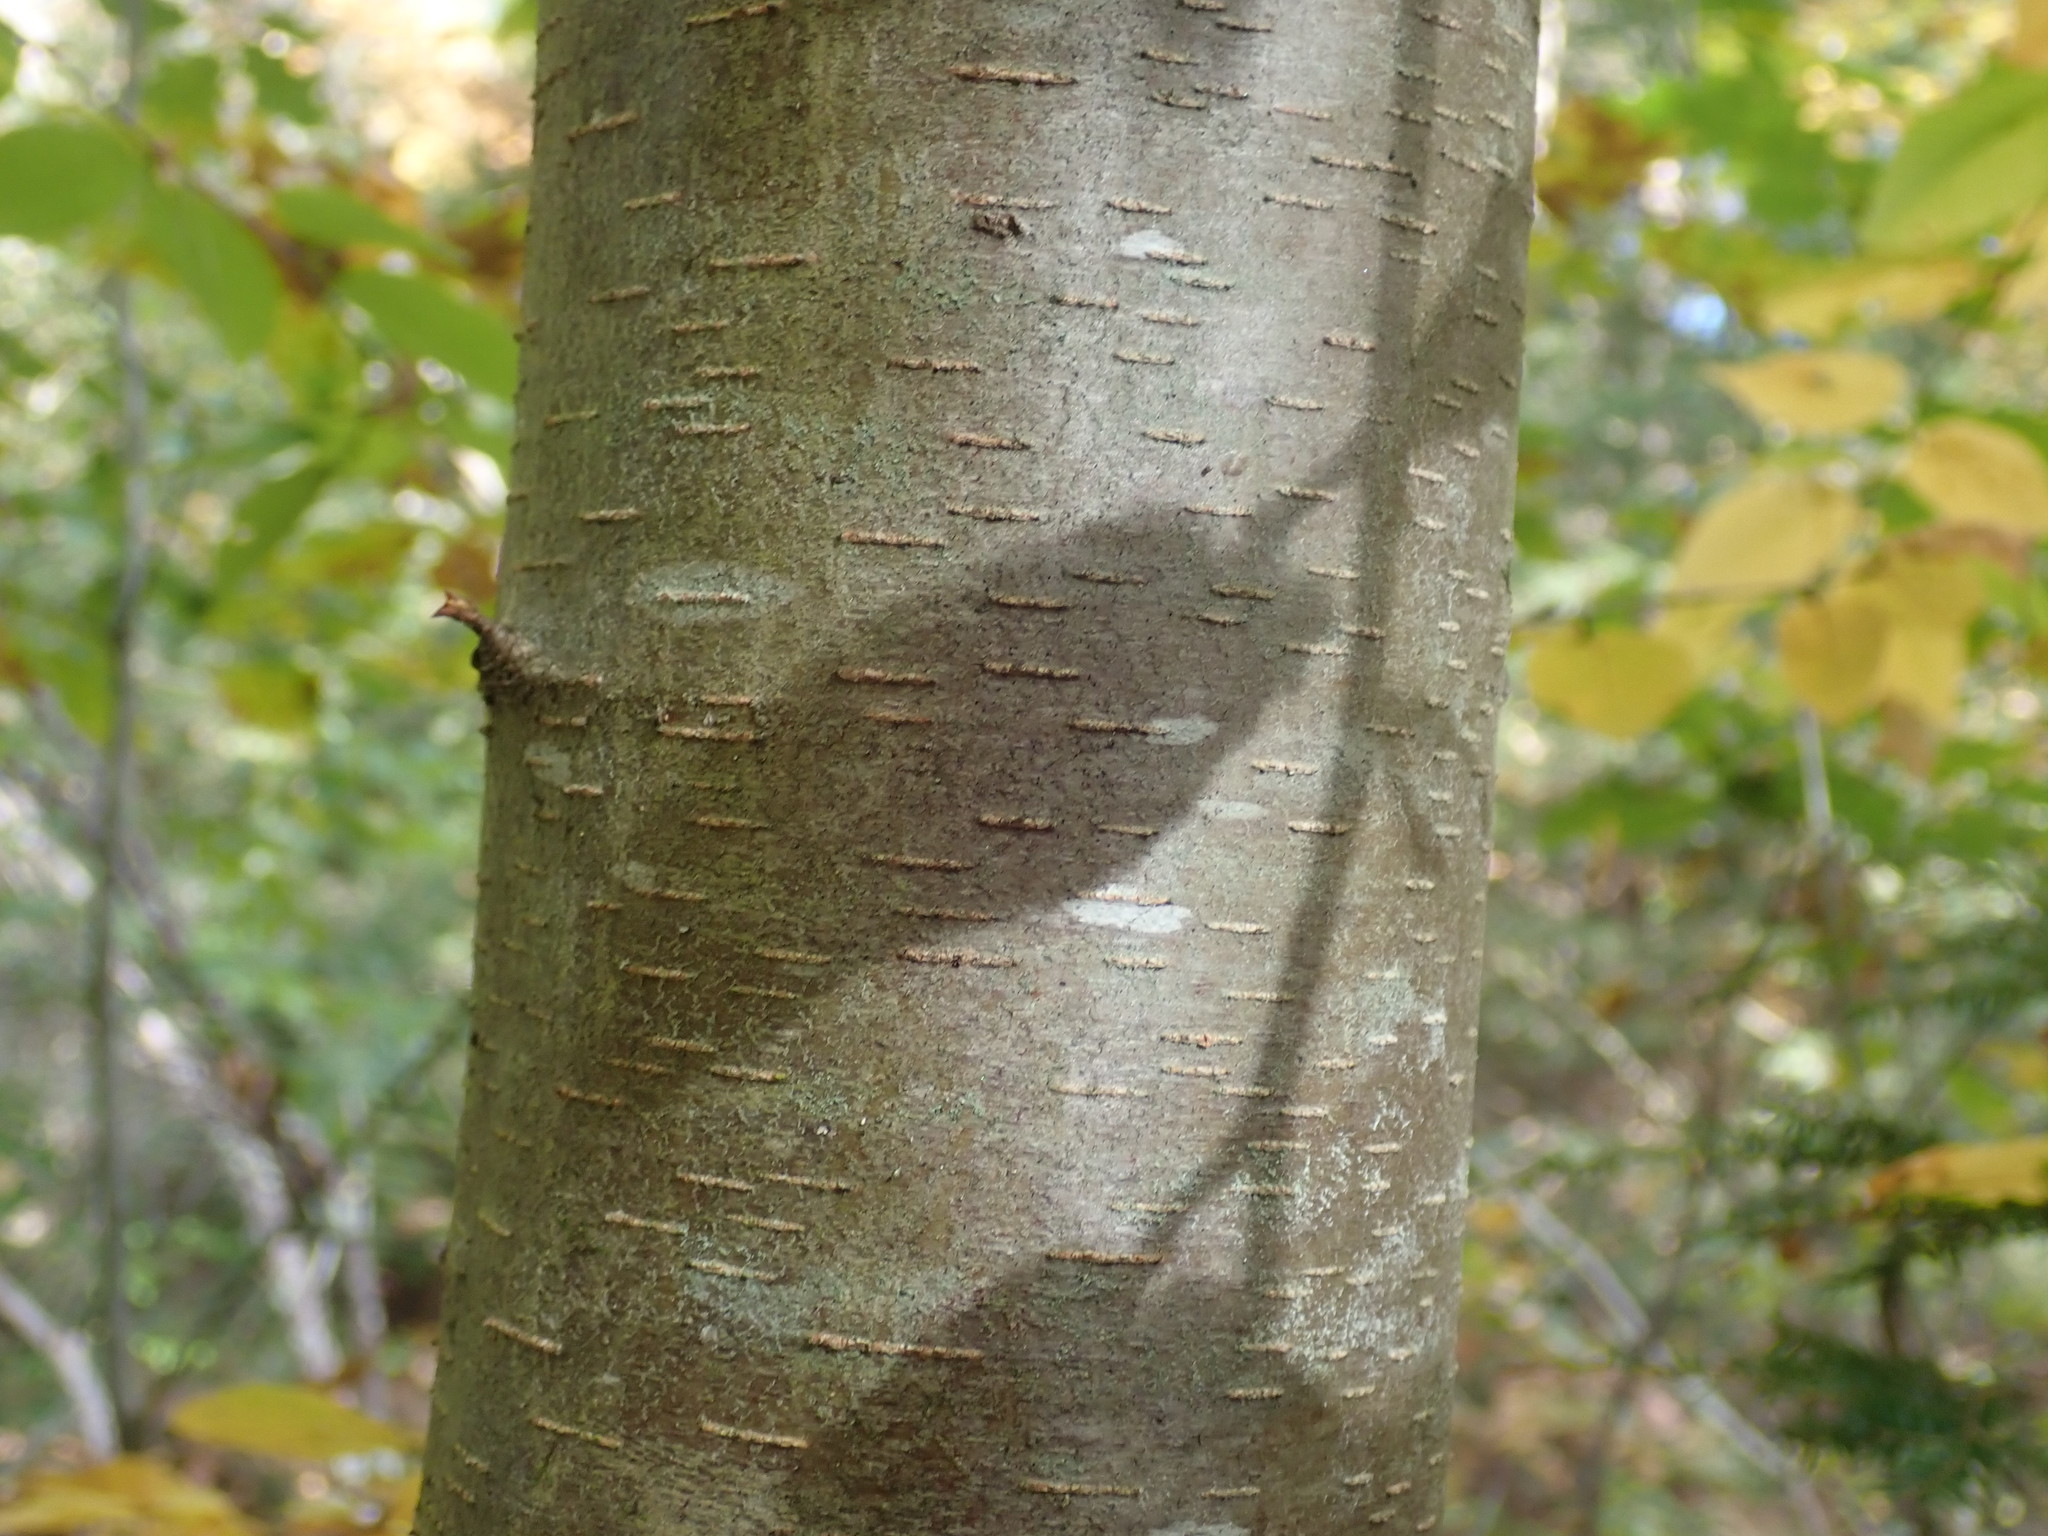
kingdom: Plantae
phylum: Tracheophyta
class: Magnoliopsida
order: Fagales
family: Betulaceae
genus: Betula
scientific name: Betula lenta
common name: Black birch
